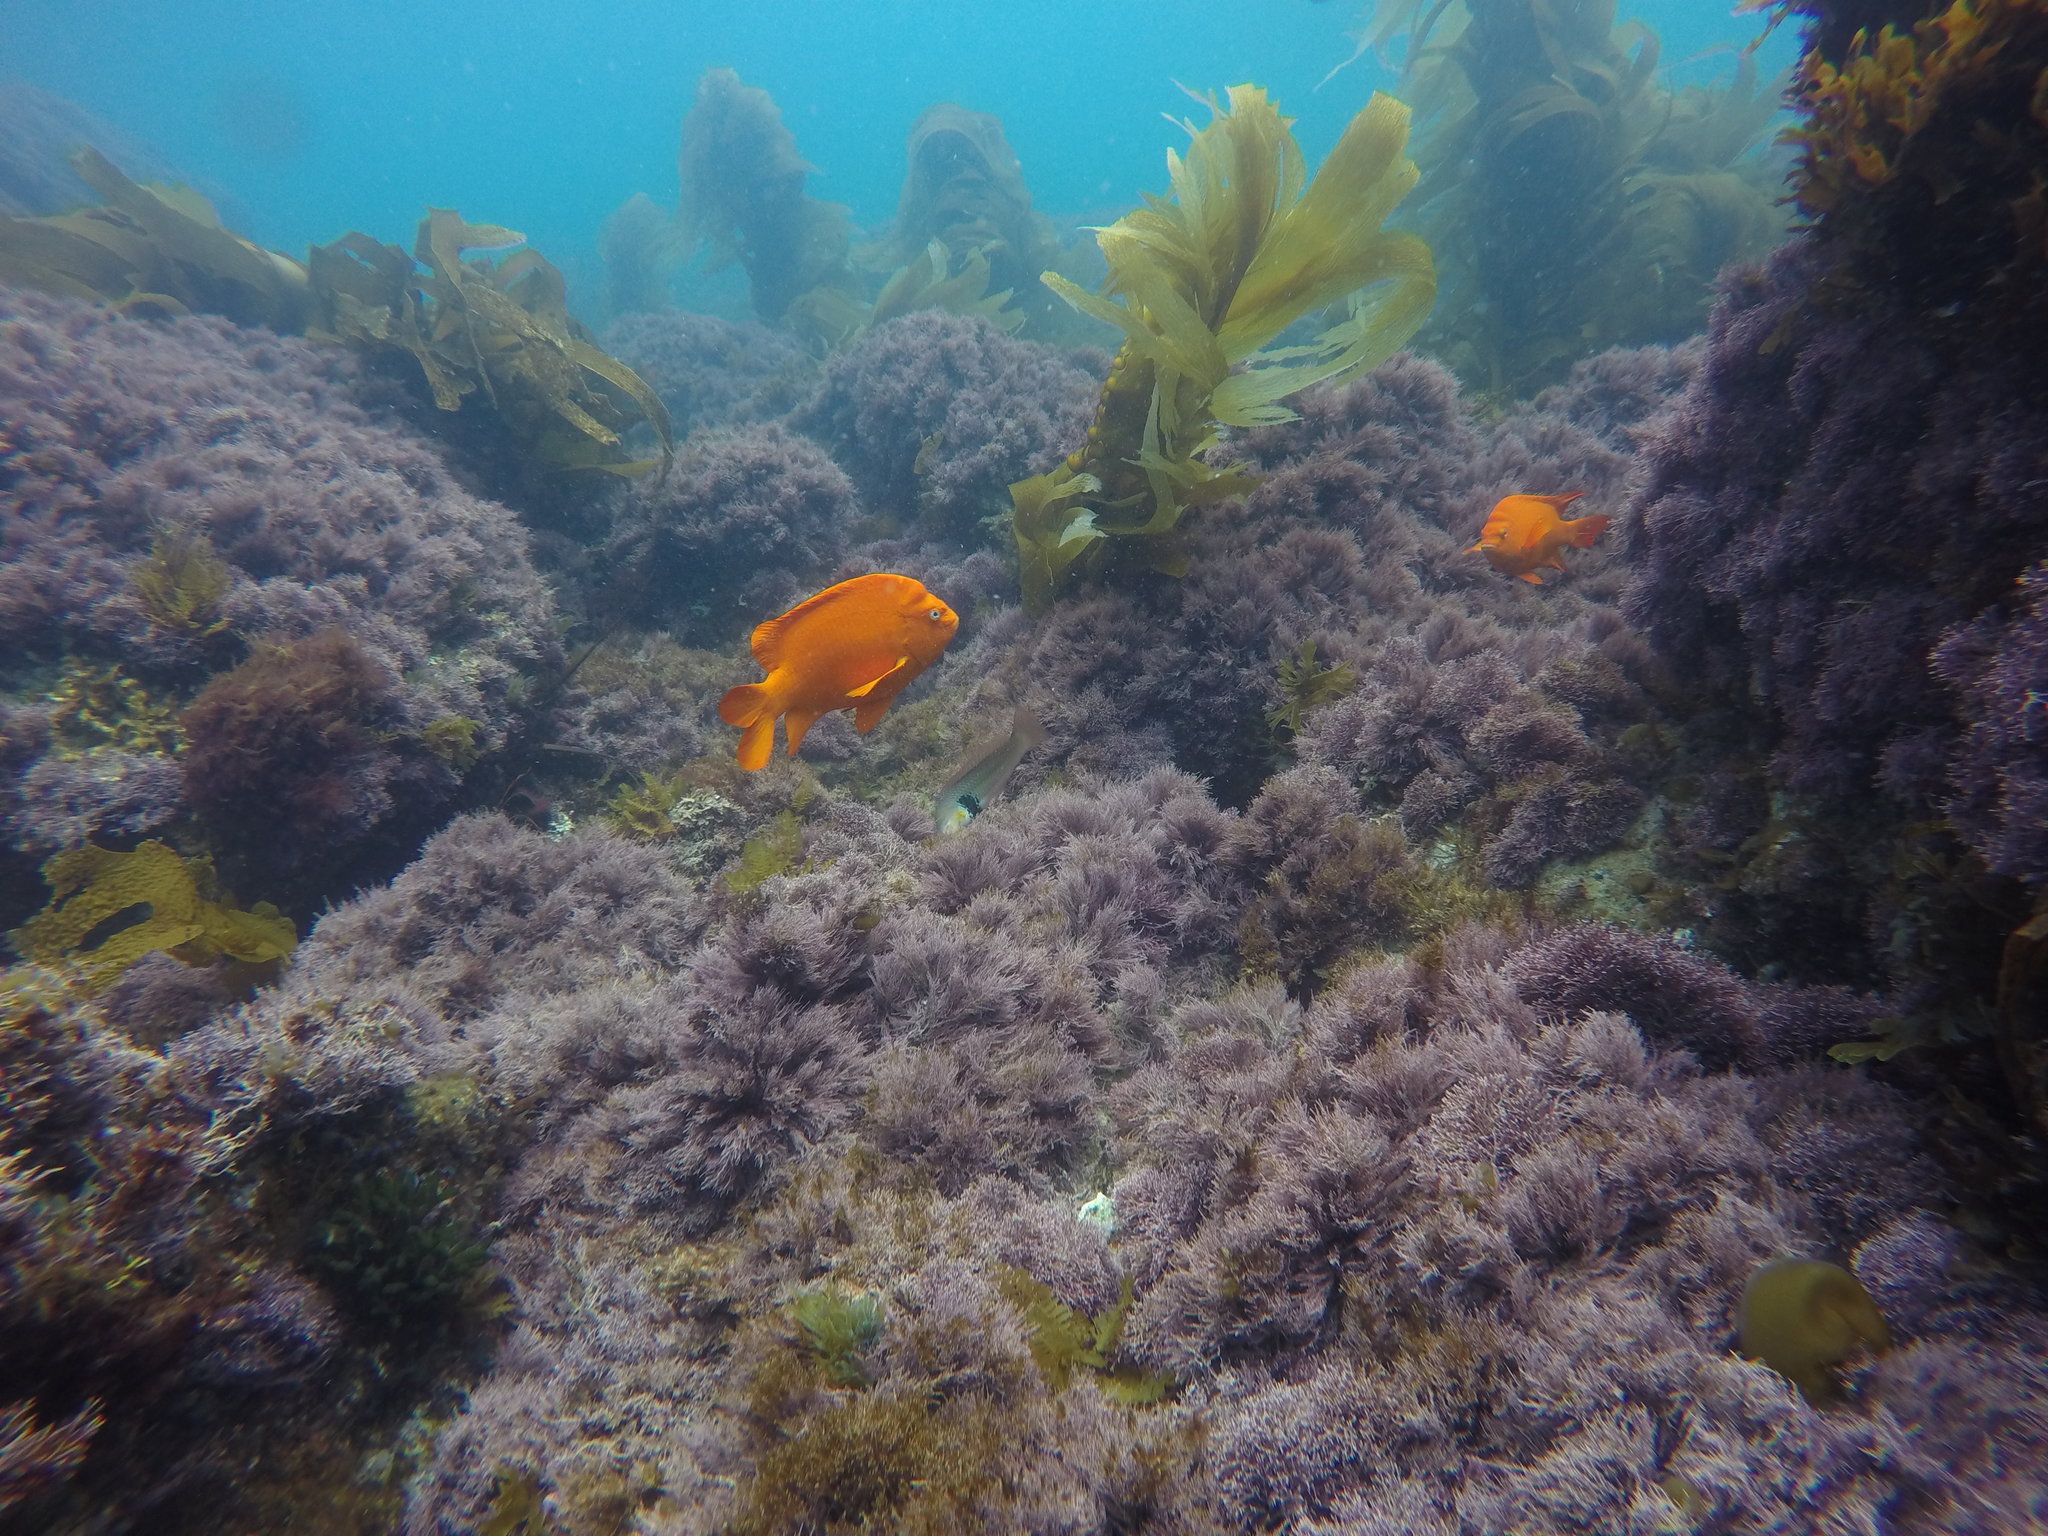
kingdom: Animalia
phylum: Chordata
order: Perciformes
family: Labridae
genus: Halichoeres
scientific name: Halichoeres semicinctus
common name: Rock wrasse
